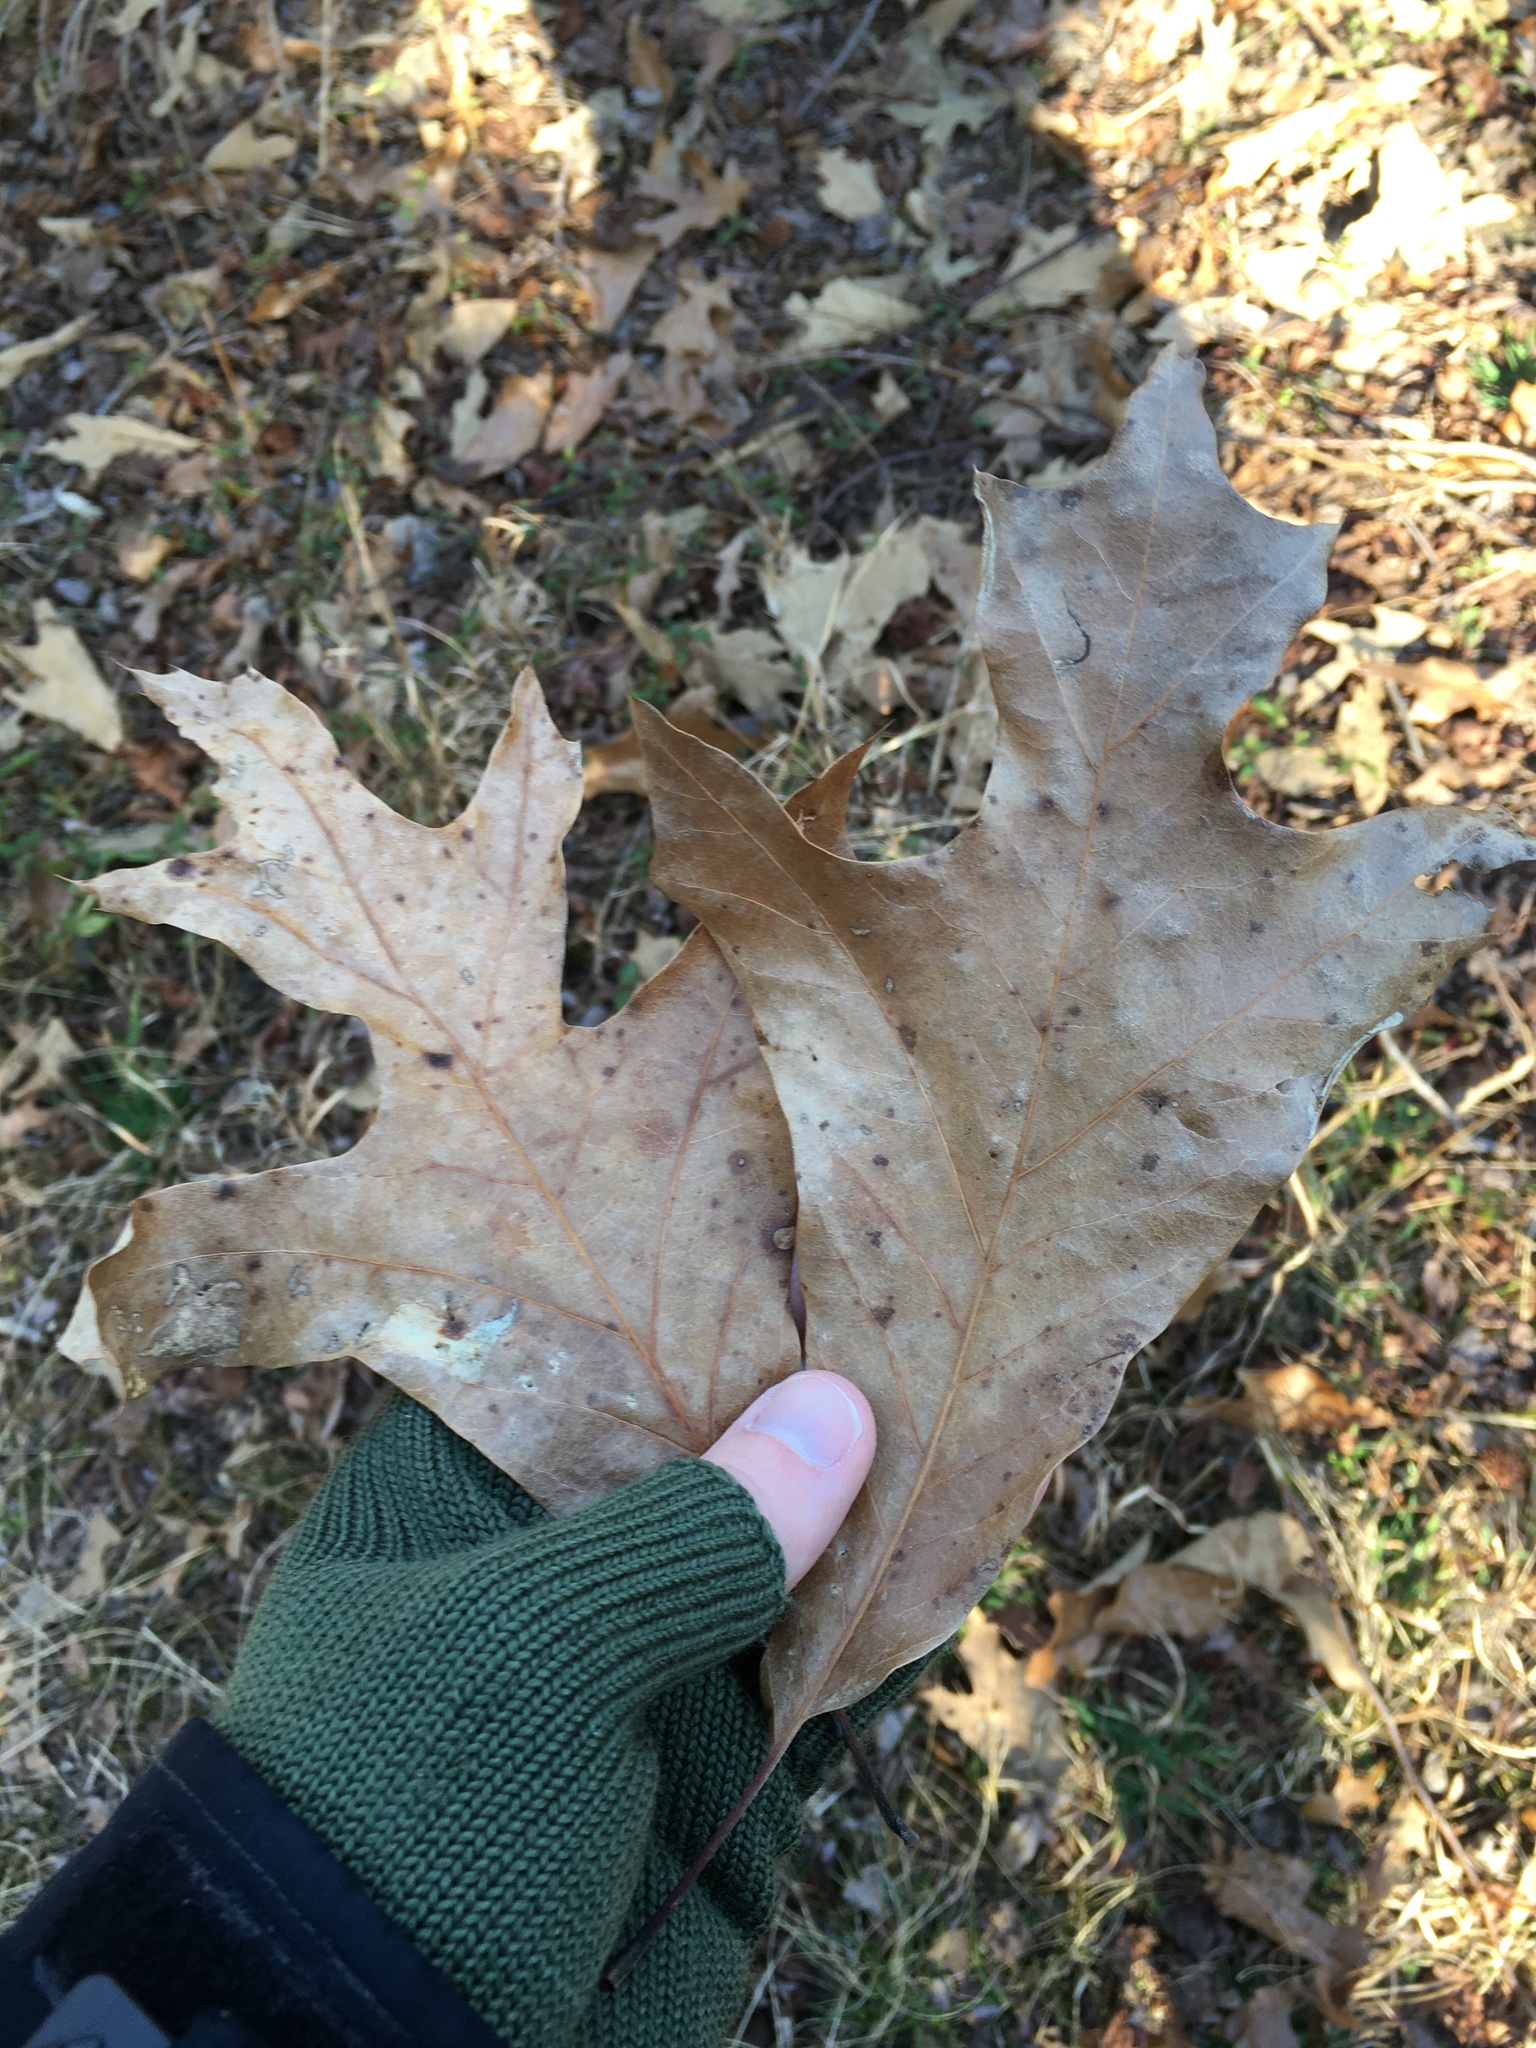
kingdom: Plantae
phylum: Tracheophyta
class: Magnoliopsida
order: Fagales
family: Fagaceae
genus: Quercus
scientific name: Quercus falcata
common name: Southern red oak
